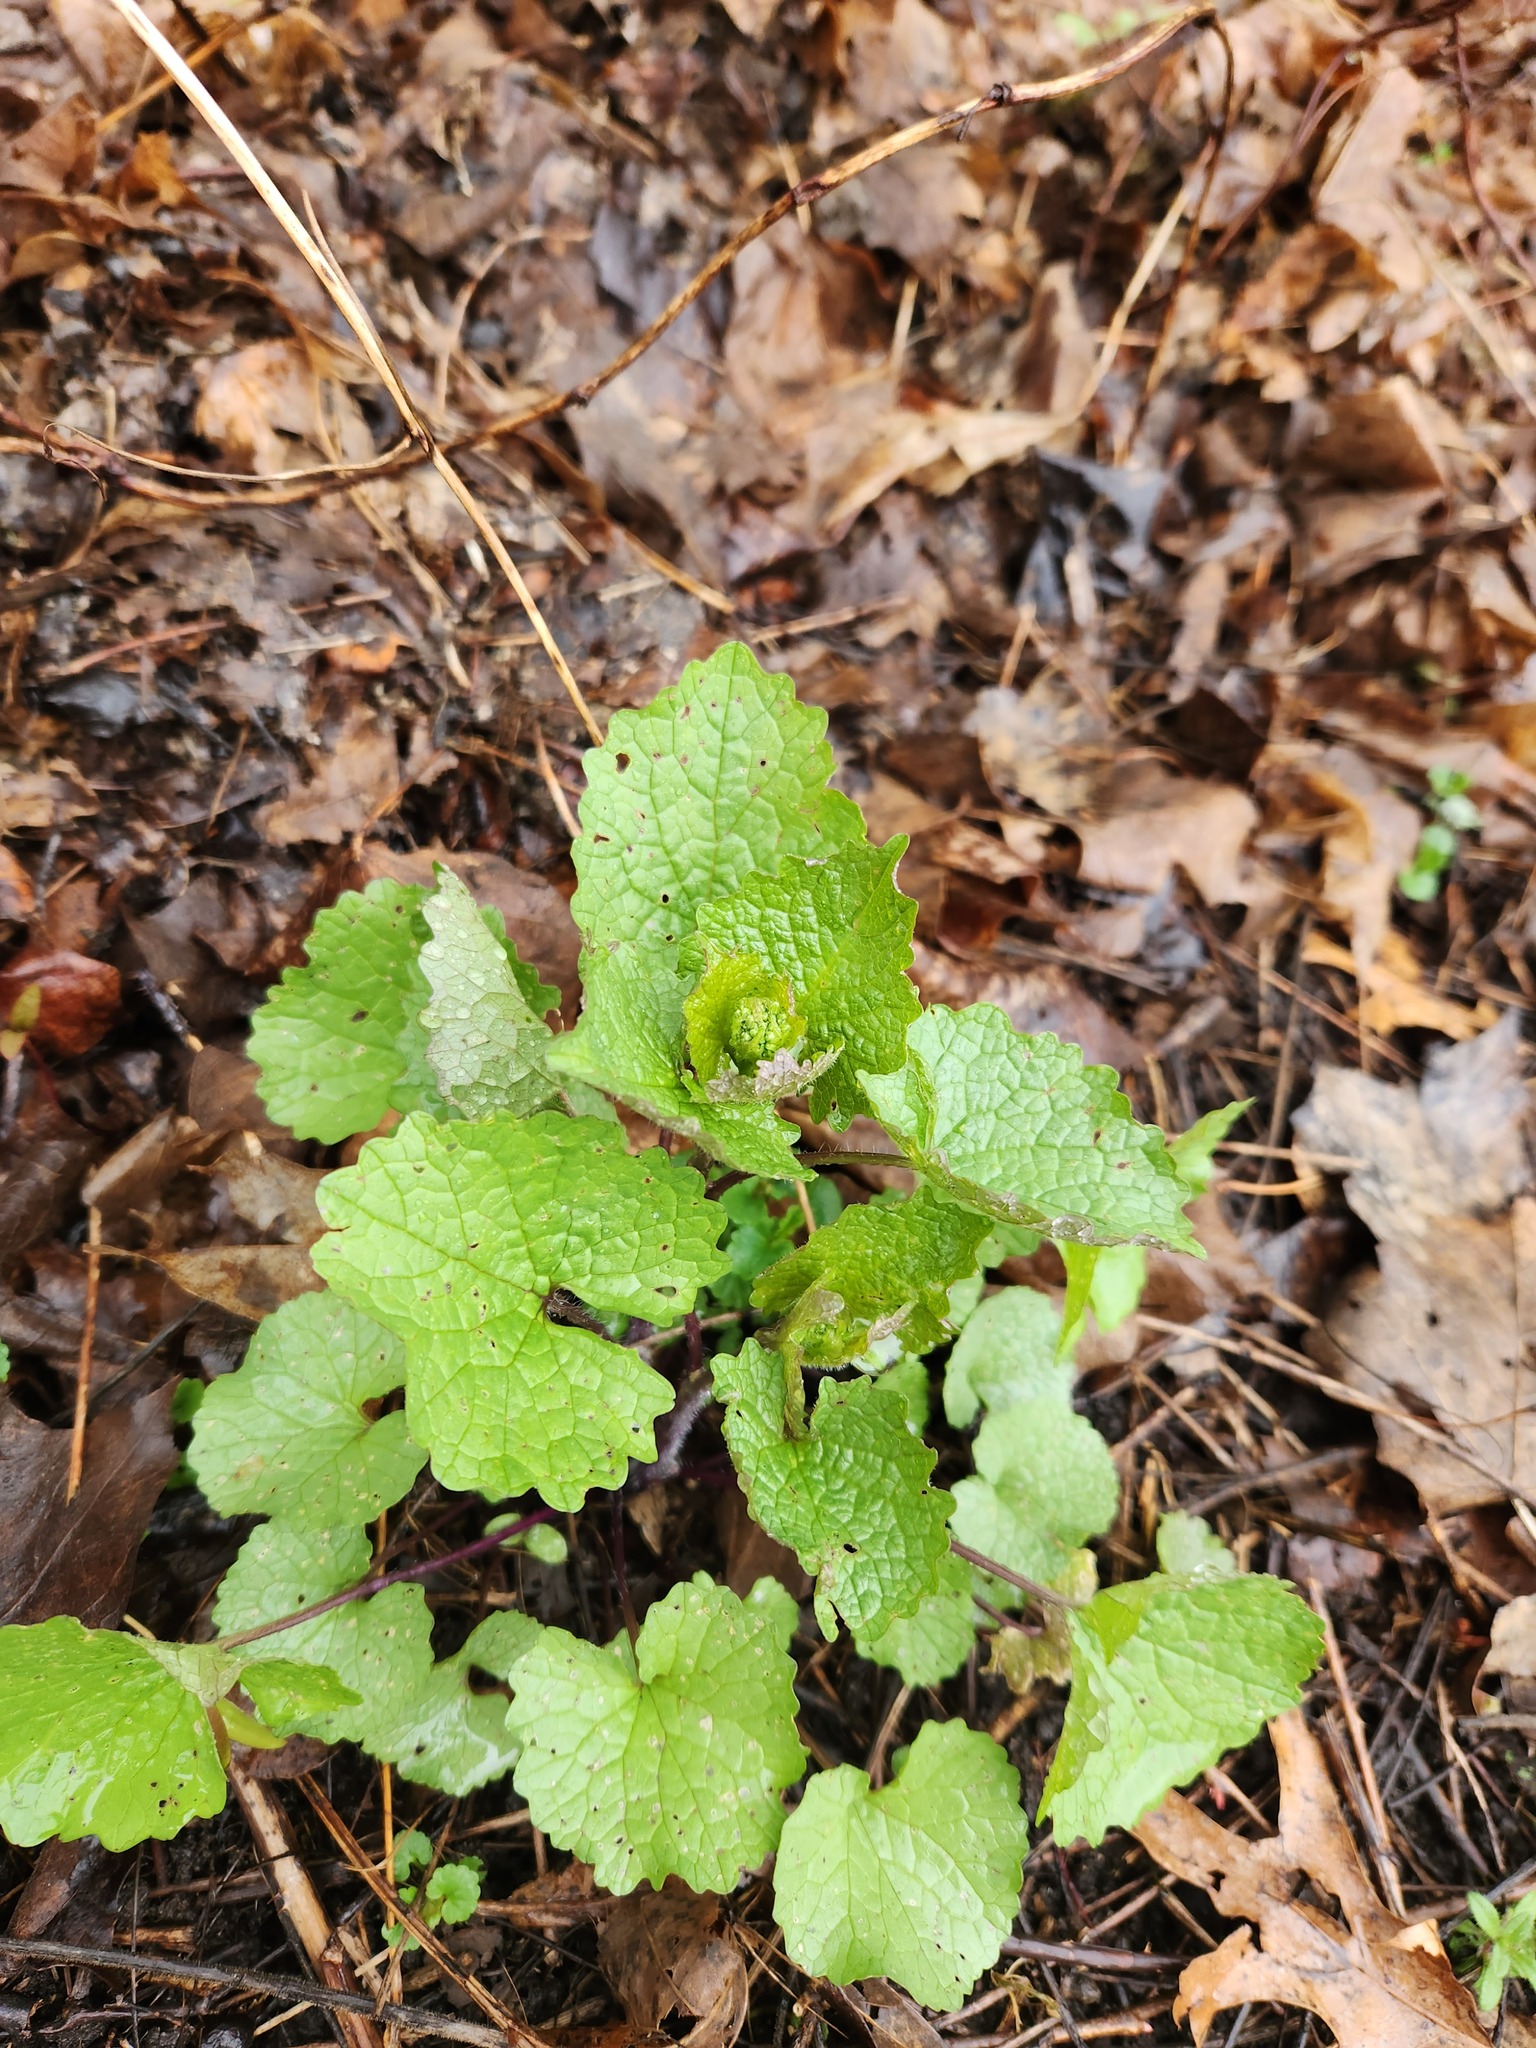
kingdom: Plantae
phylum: Tracheophyta
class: Magnoliopsida
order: Brassicales
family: Brassicaceae
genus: Alliaria
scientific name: Alliaria petiolata
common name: Garlic mustard
